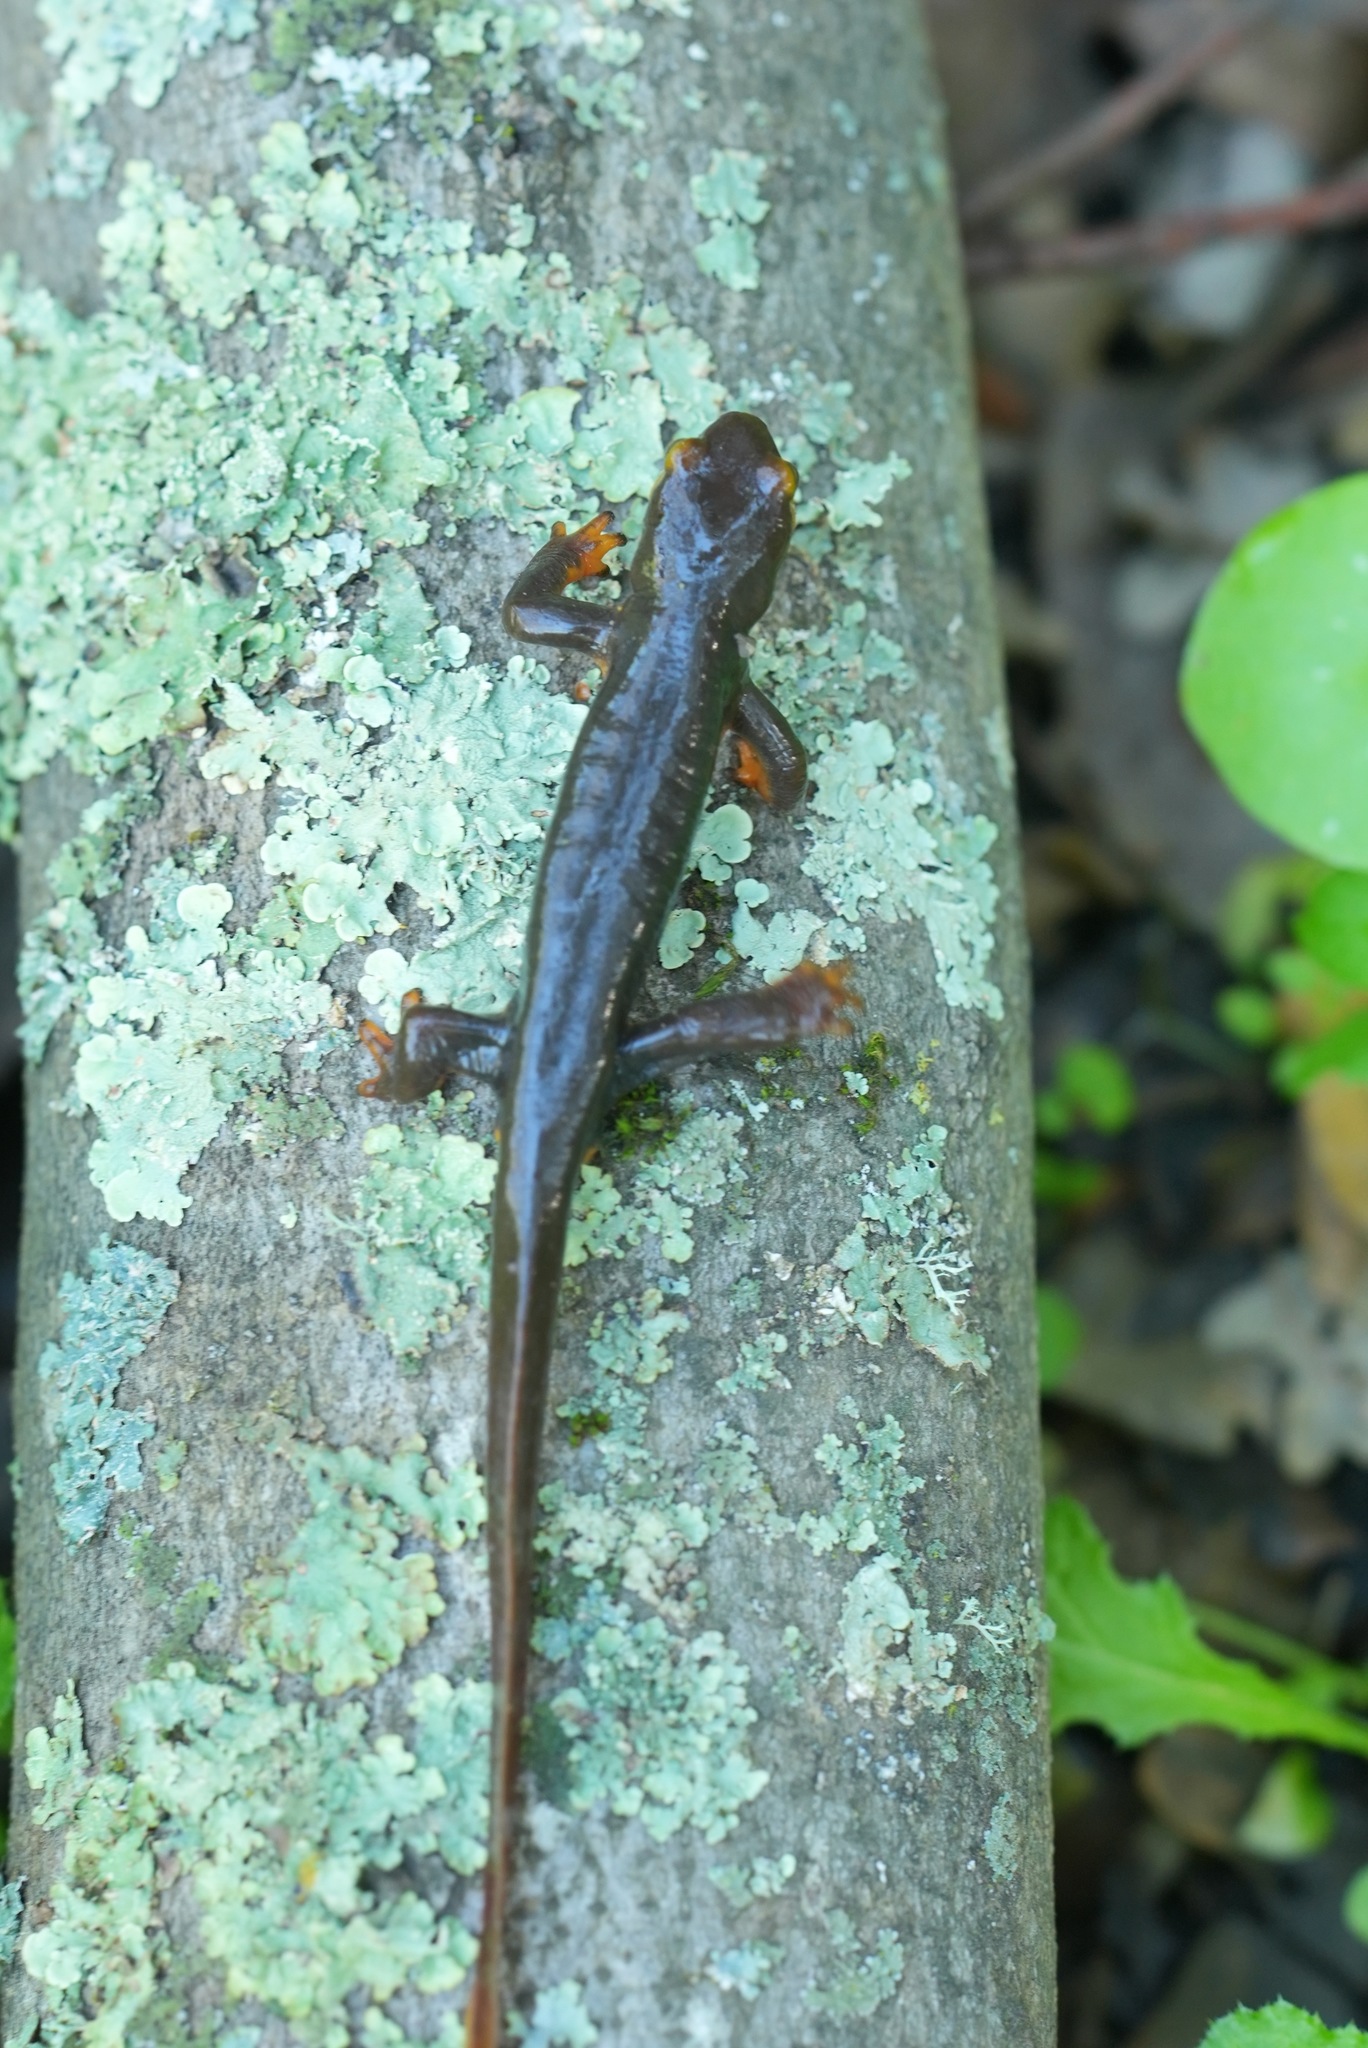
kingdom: Animalia
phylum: Chordata
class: Amphibia
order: Caudata
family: Salamandridae
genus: Taricha
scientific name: Taricha torosa
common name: California newt
